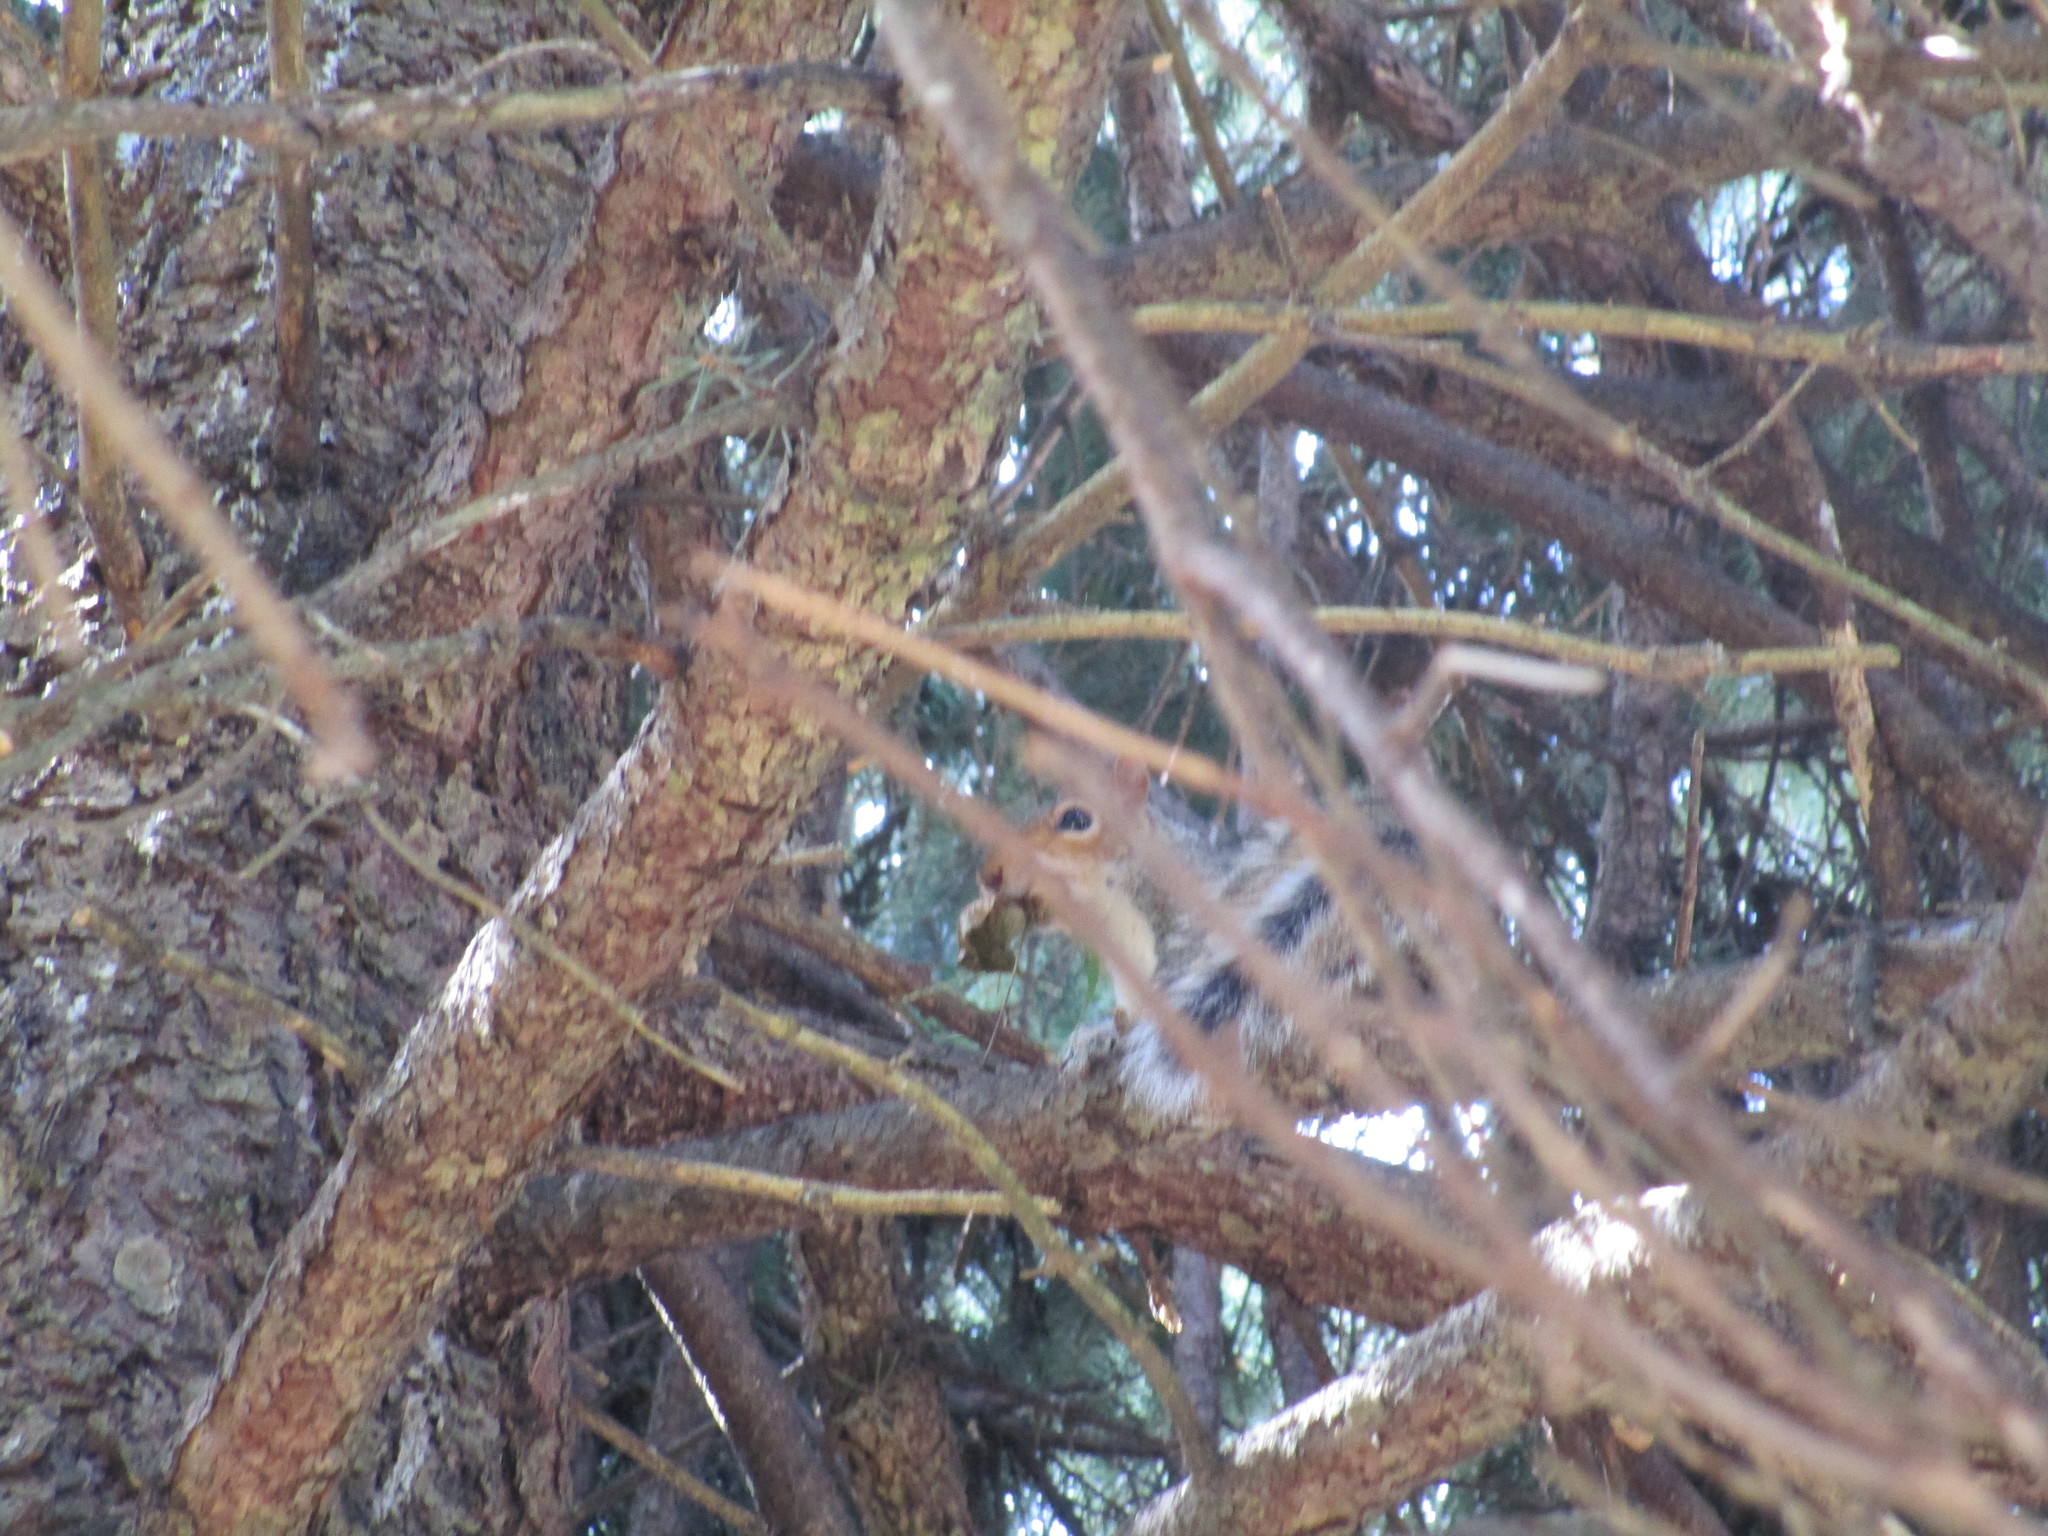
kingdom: Animalia
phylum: Chordata
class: Mammalia
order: Rodentia
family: Sciuridae
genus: Sciurus
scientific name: Sciurus carolinensis
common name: Eastern gray squirrel
